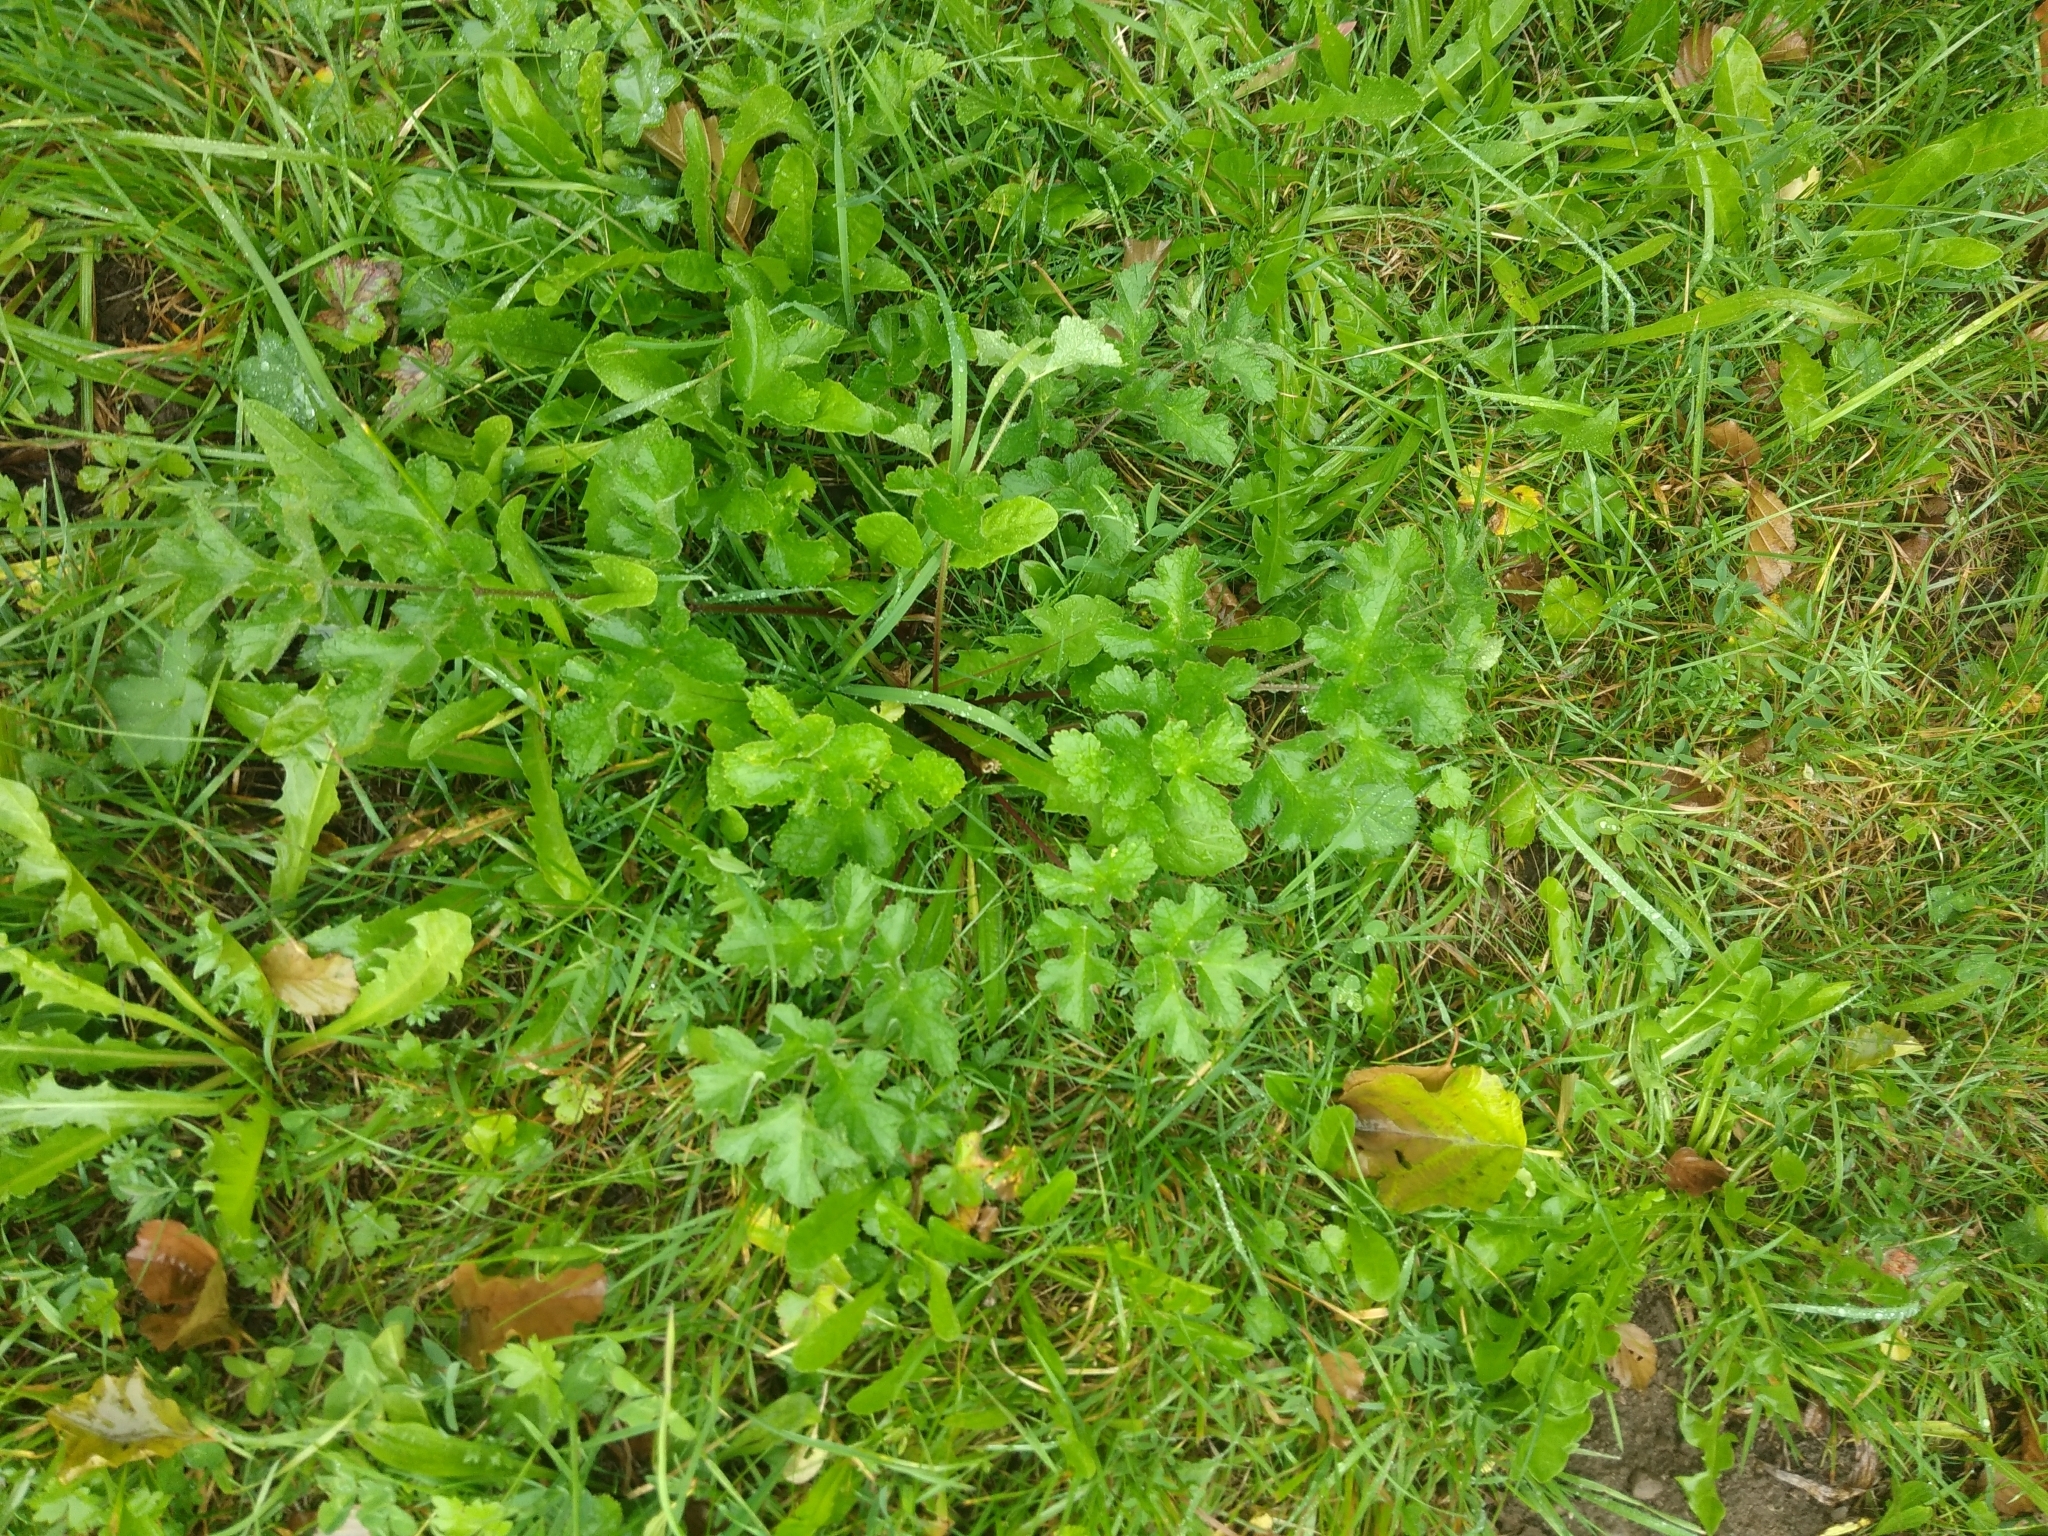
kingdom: Plantae
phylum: Tracheophyta
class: Magnoliopsida
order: Apiales
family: Apiaceae
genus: Heracleum
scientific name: Heracleum sphondylium
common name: Hogweed
